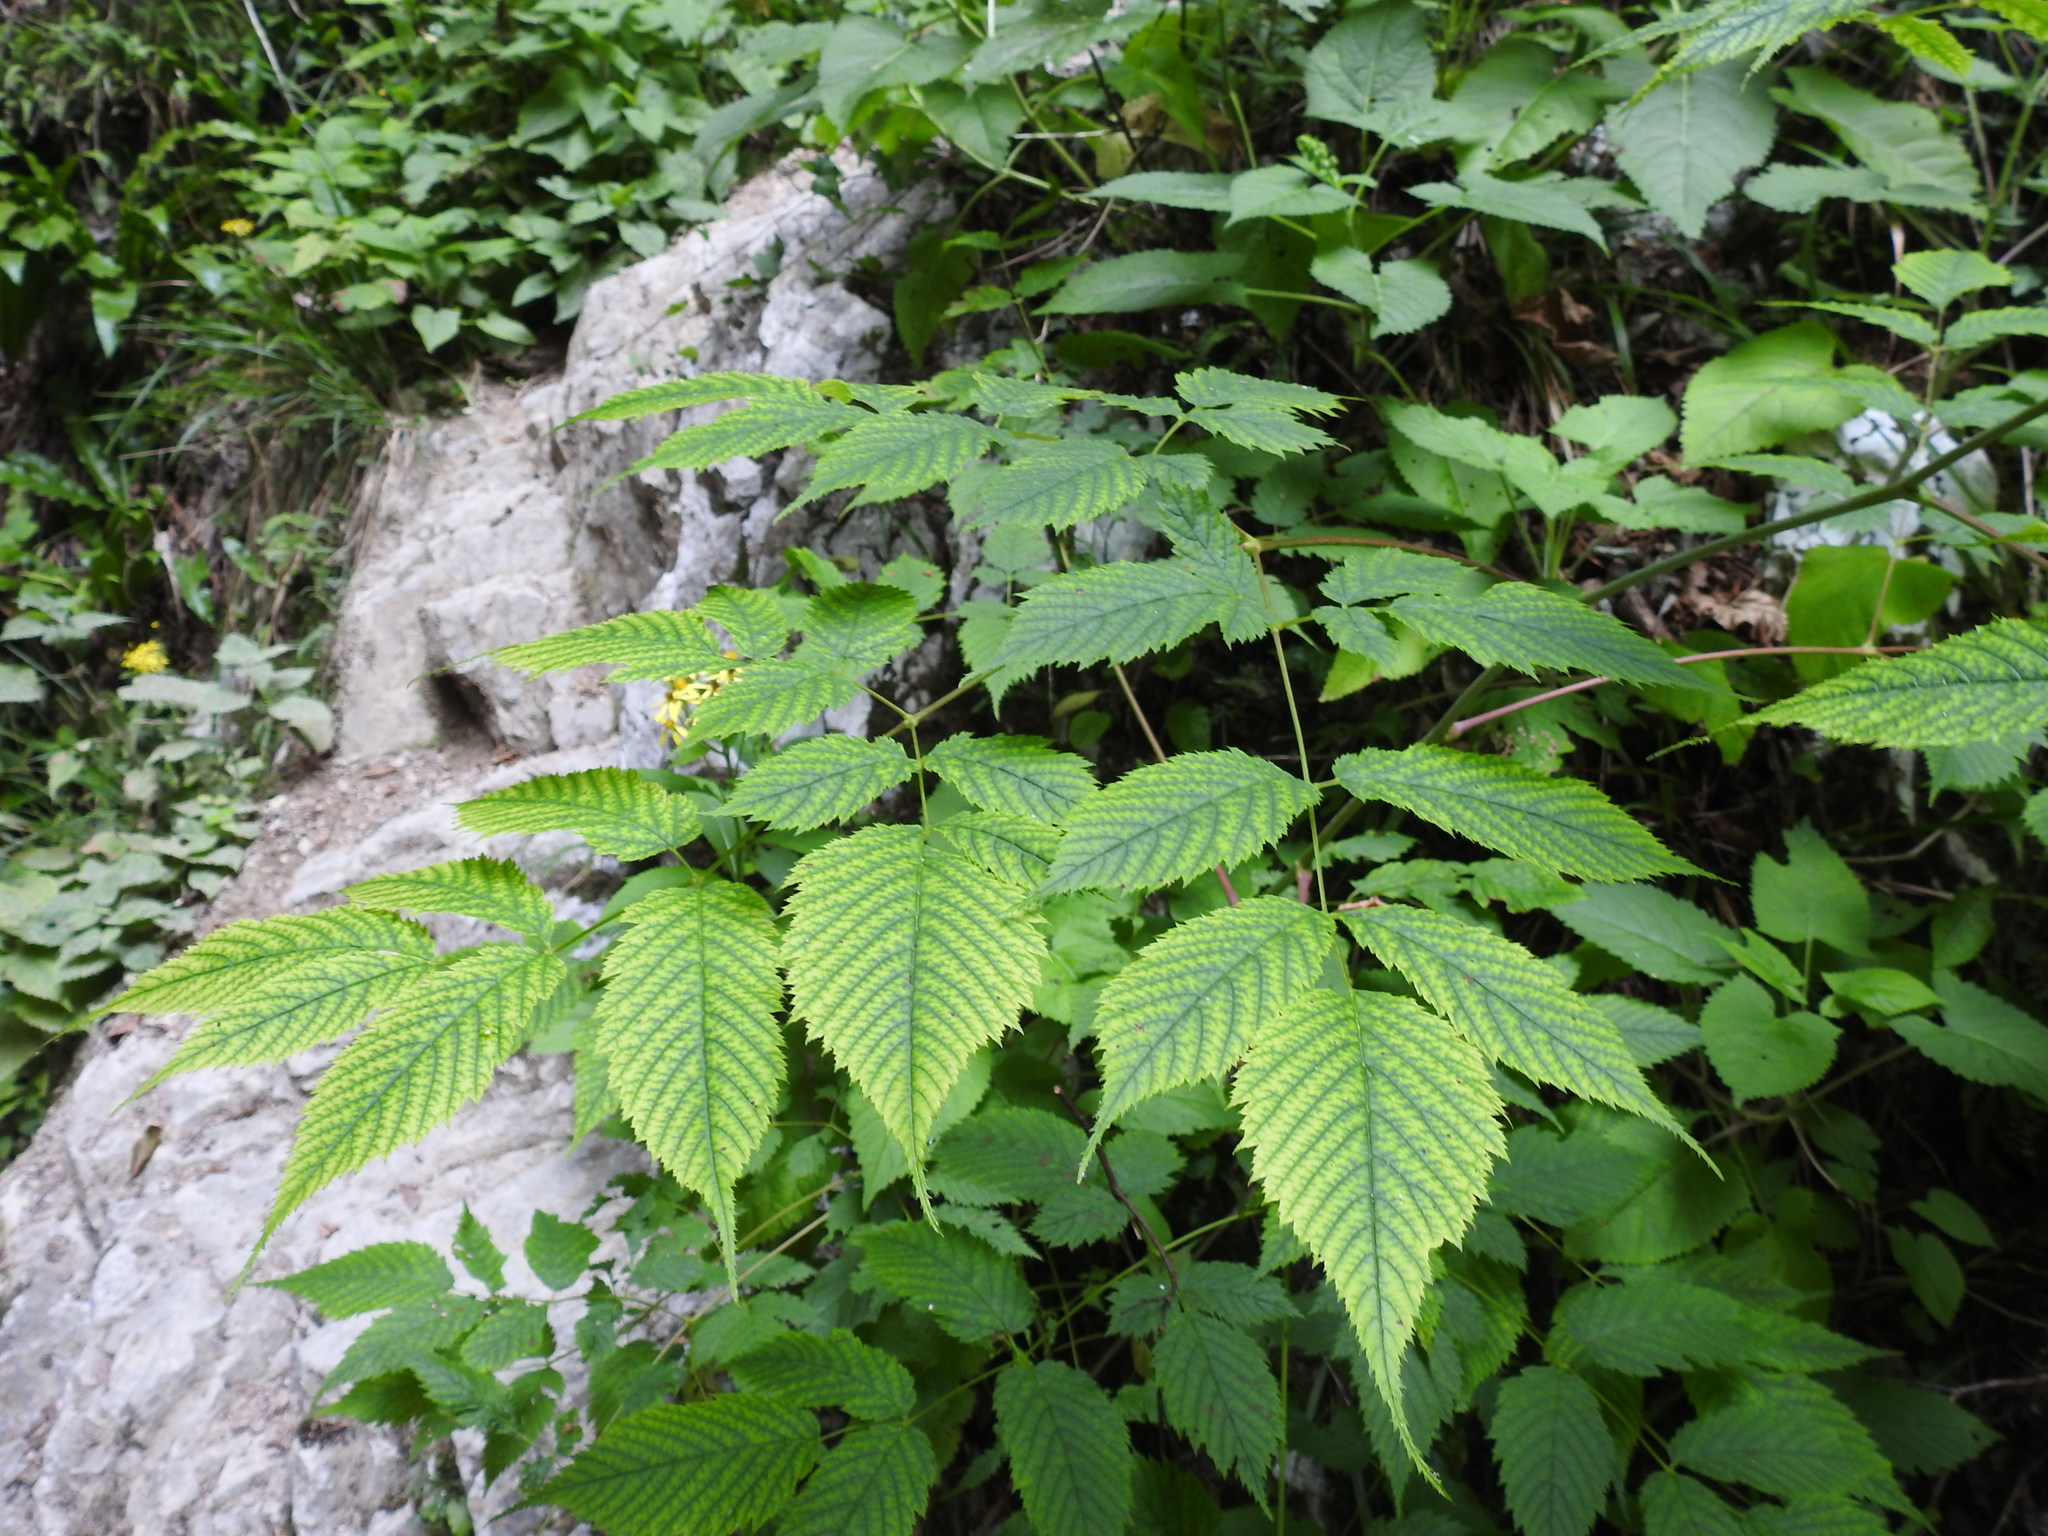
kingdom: Plantae
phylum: Tracheophyta
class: Magnoliopsida
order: Rosales
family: Rosaceae
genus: Aruncus
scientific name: Aruncus dioicus
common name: Buck's-beard
